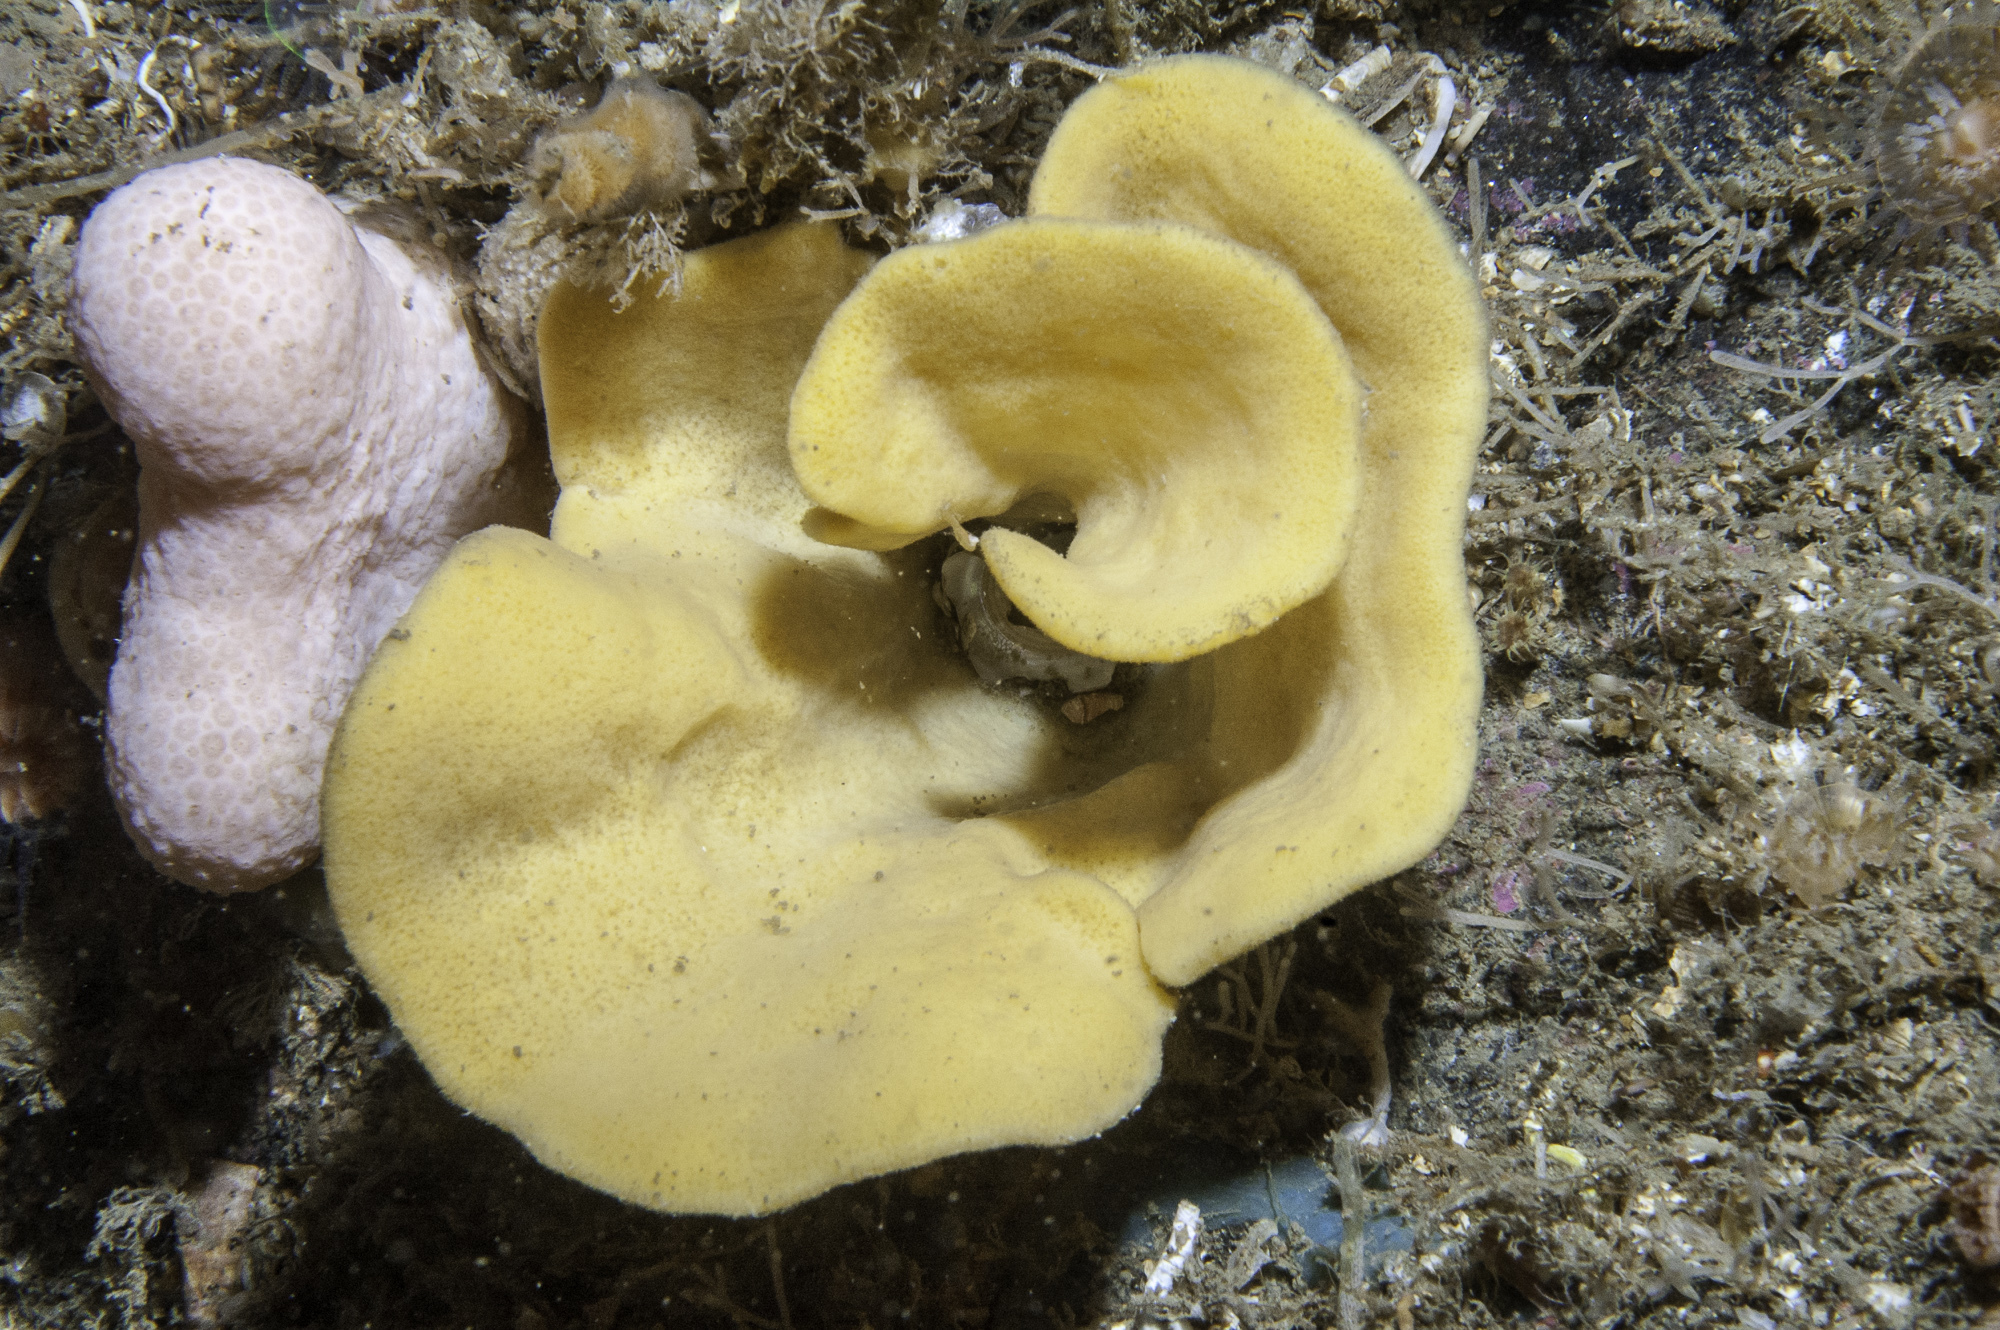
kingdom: Animalia
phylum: Porifera
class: Demospongiae
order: Axinellida
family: Axinellidae
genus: Axinella
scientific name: Axinella infundibuliformis
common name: North atlantic cup sponge
